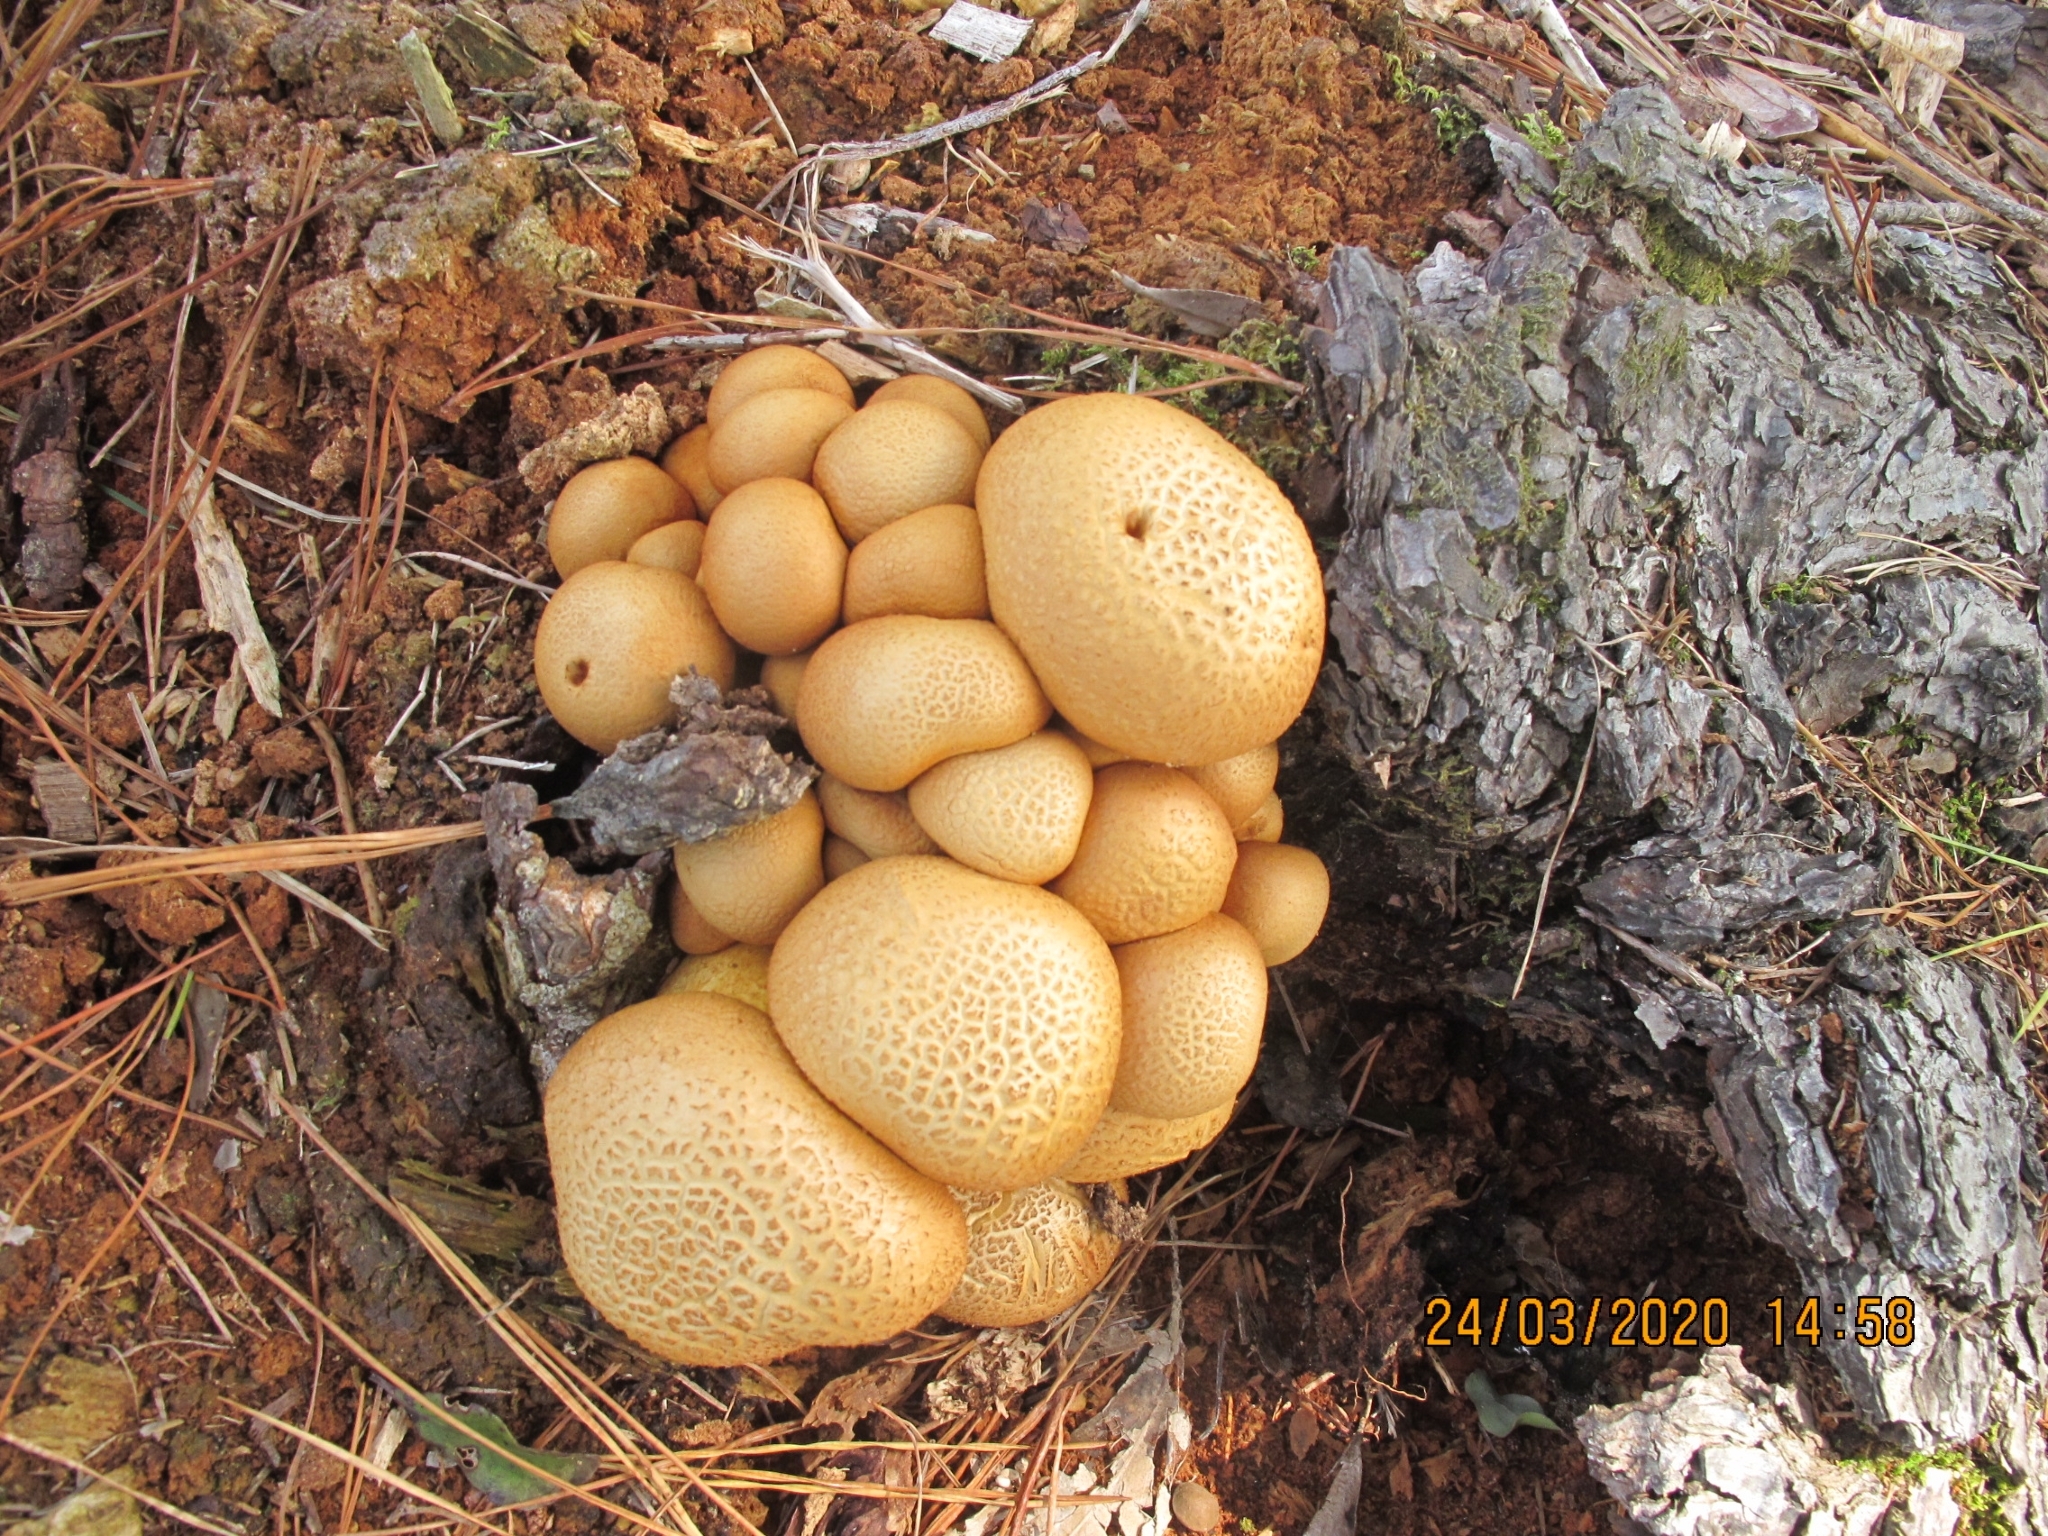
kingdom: Fungi
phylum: Basidiomycota
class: Agaricomycetes
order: Agaricales
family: Hymenogastraceae
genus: Gymnopilus
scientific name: Gymnopilus junonius
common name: Spectacular rustgill
